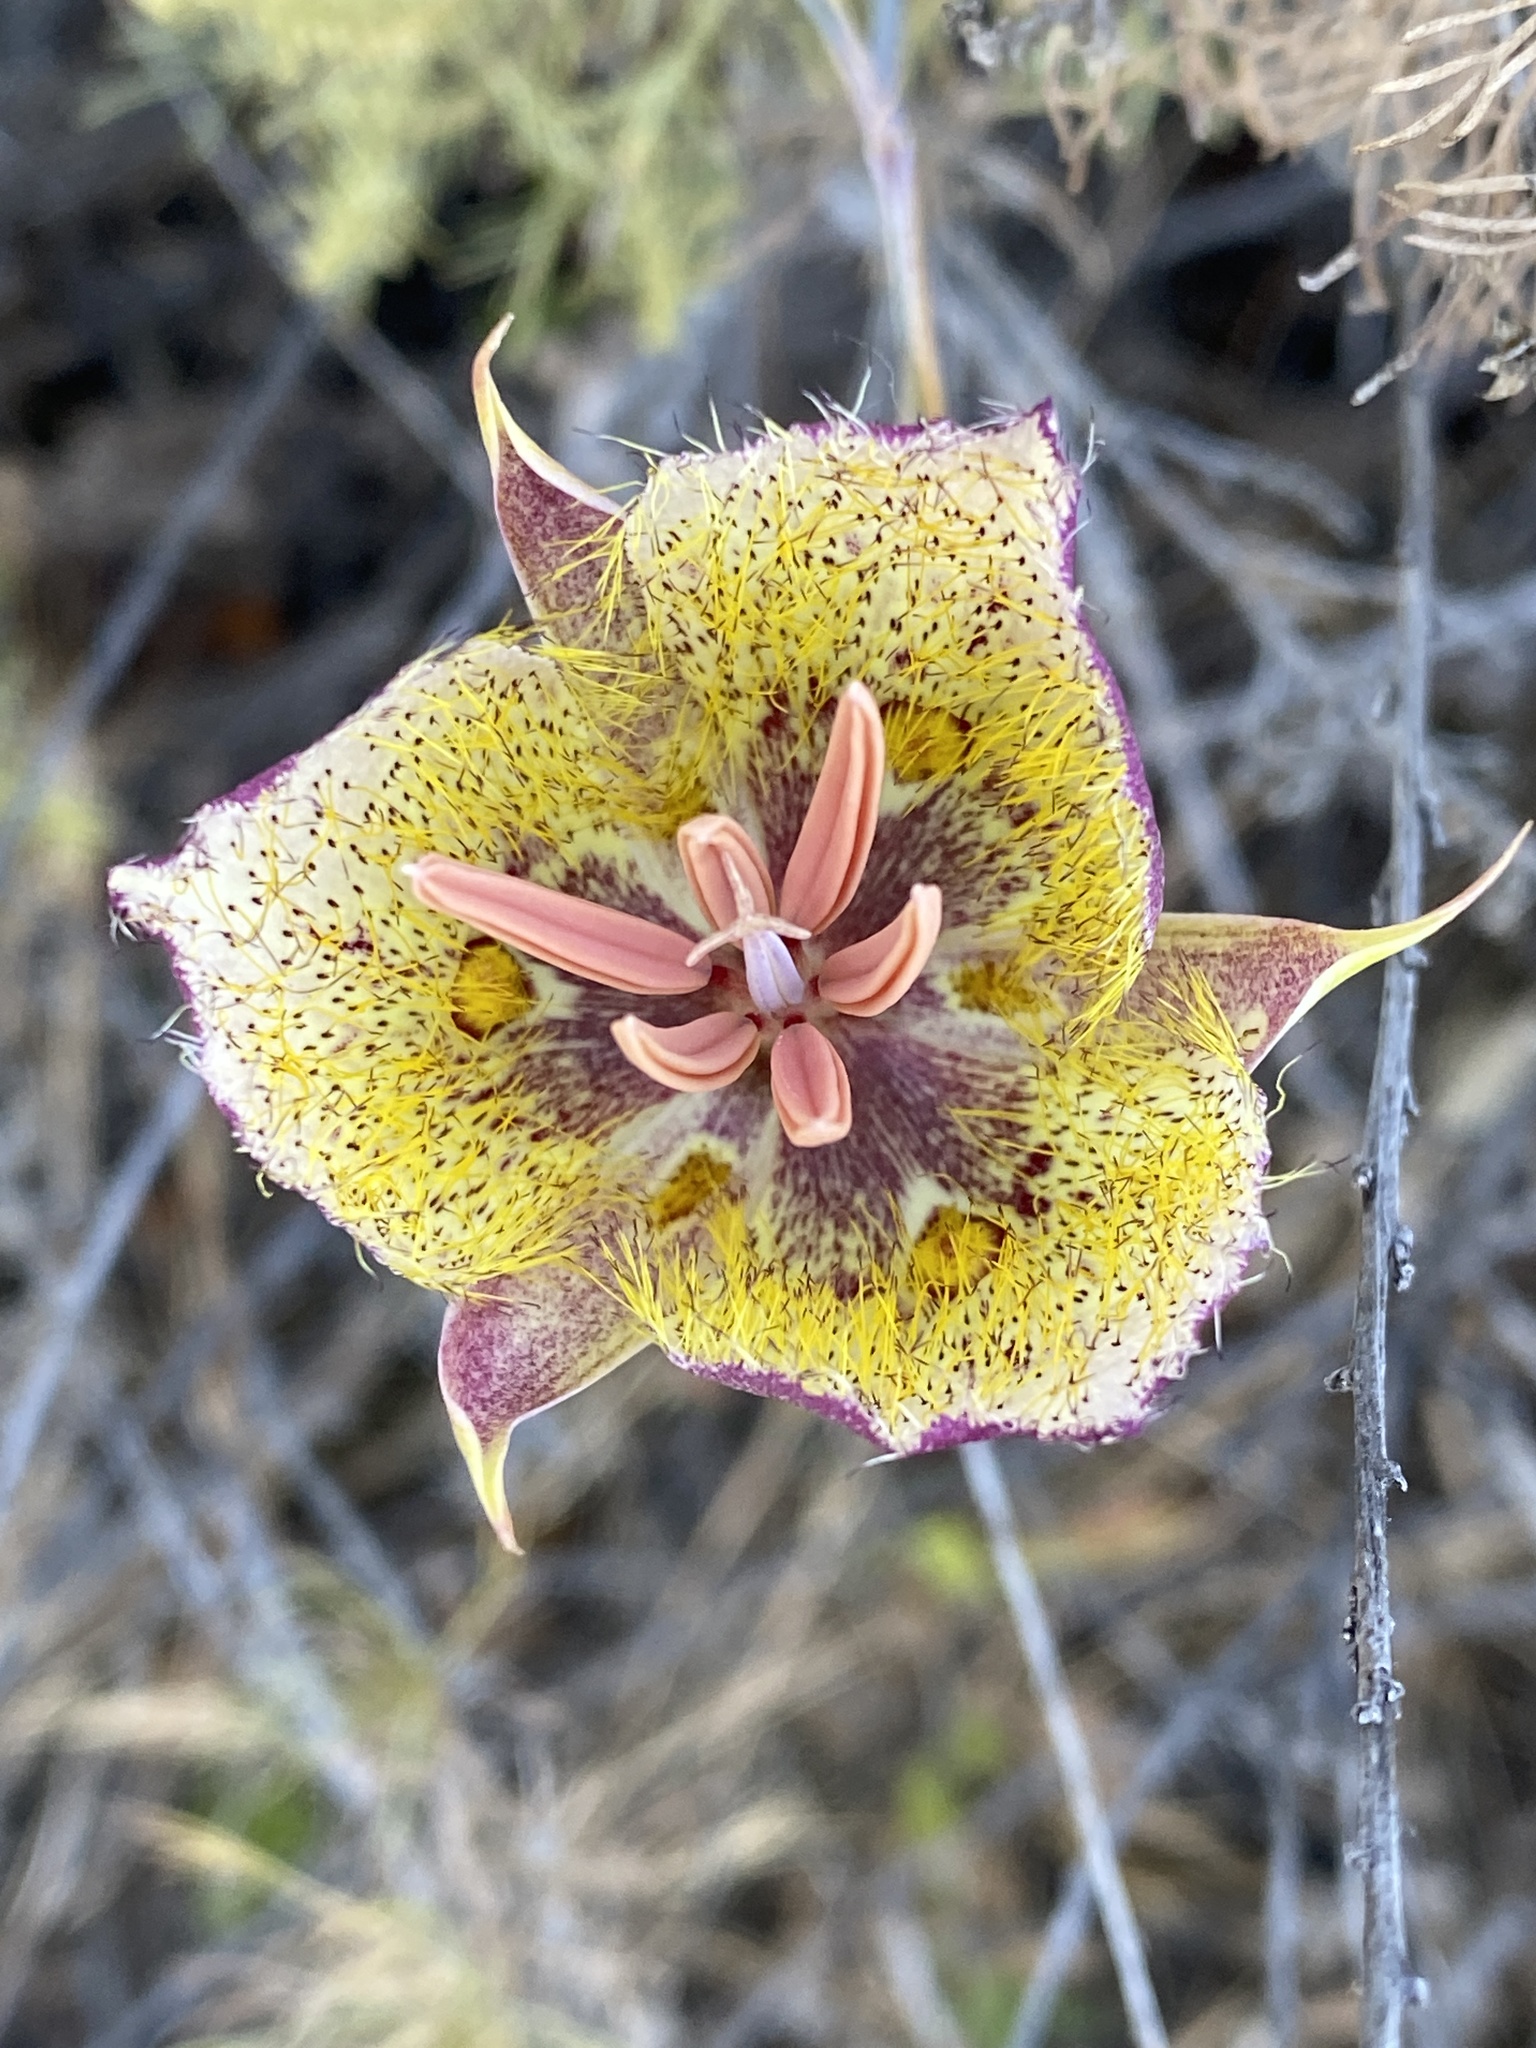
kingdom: Plantae
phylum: Tracheophyta
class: Liliopsida
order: Liliales
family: Liliaceae
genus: Calochortus
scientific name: Calochortus weedii
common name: Weed's mariposa-lily
